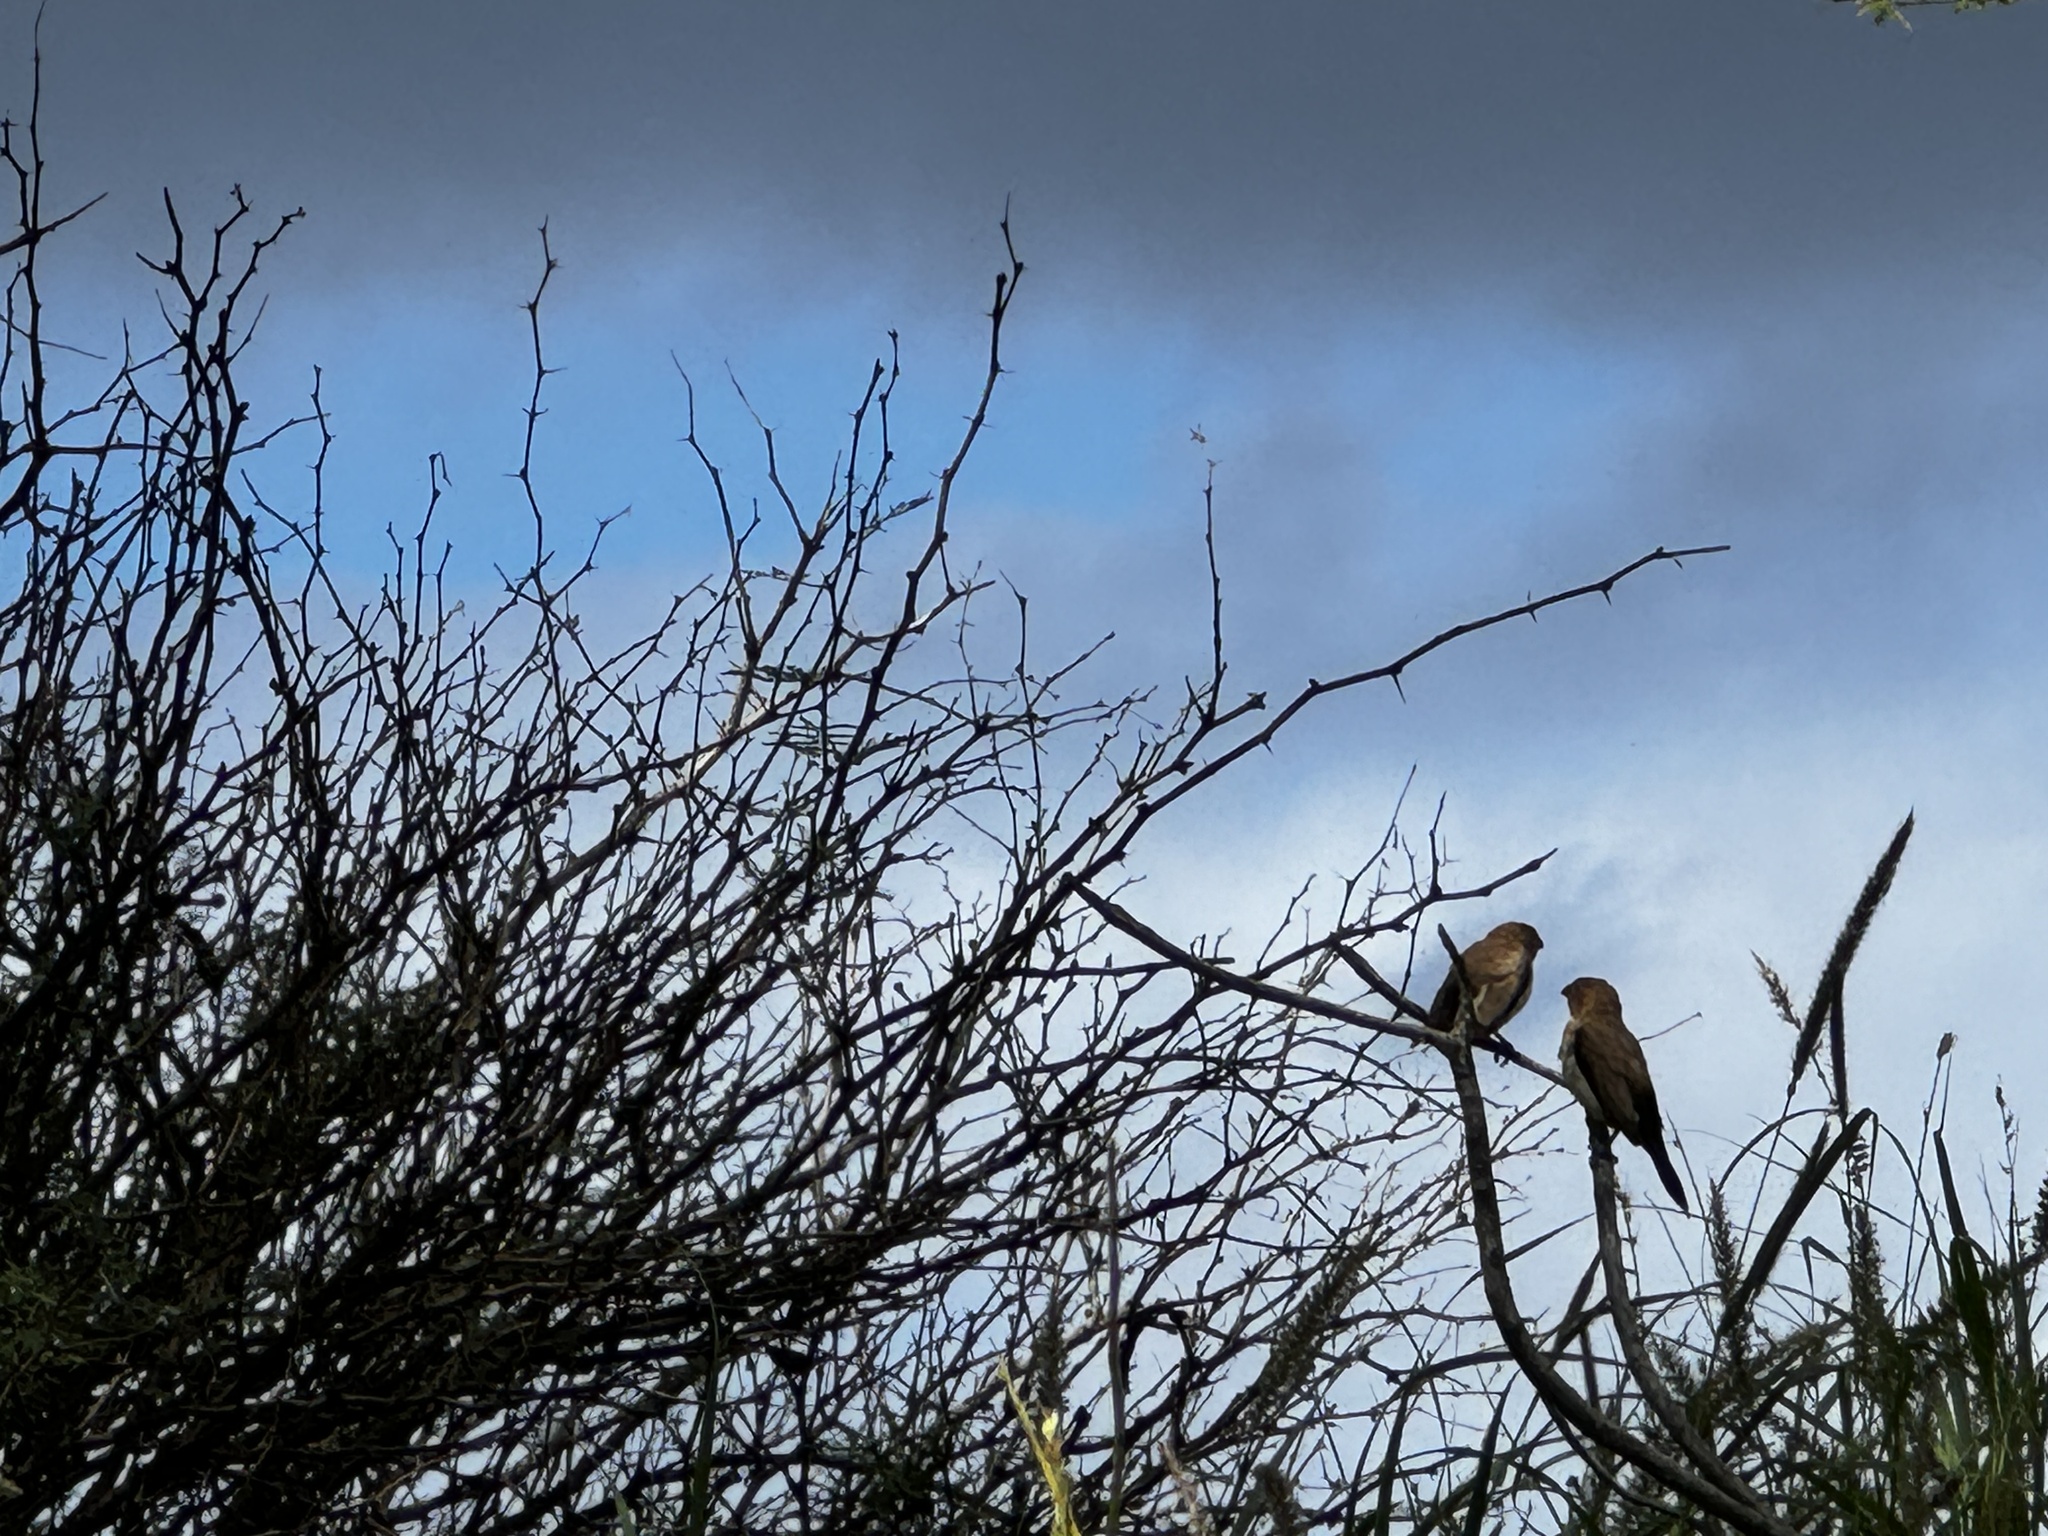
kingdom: Animalia
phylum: Chordata
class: Aves
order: Passeriformes
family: Estrildidae
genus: Euodice
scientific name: Euodice cantans
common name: African silverbill
